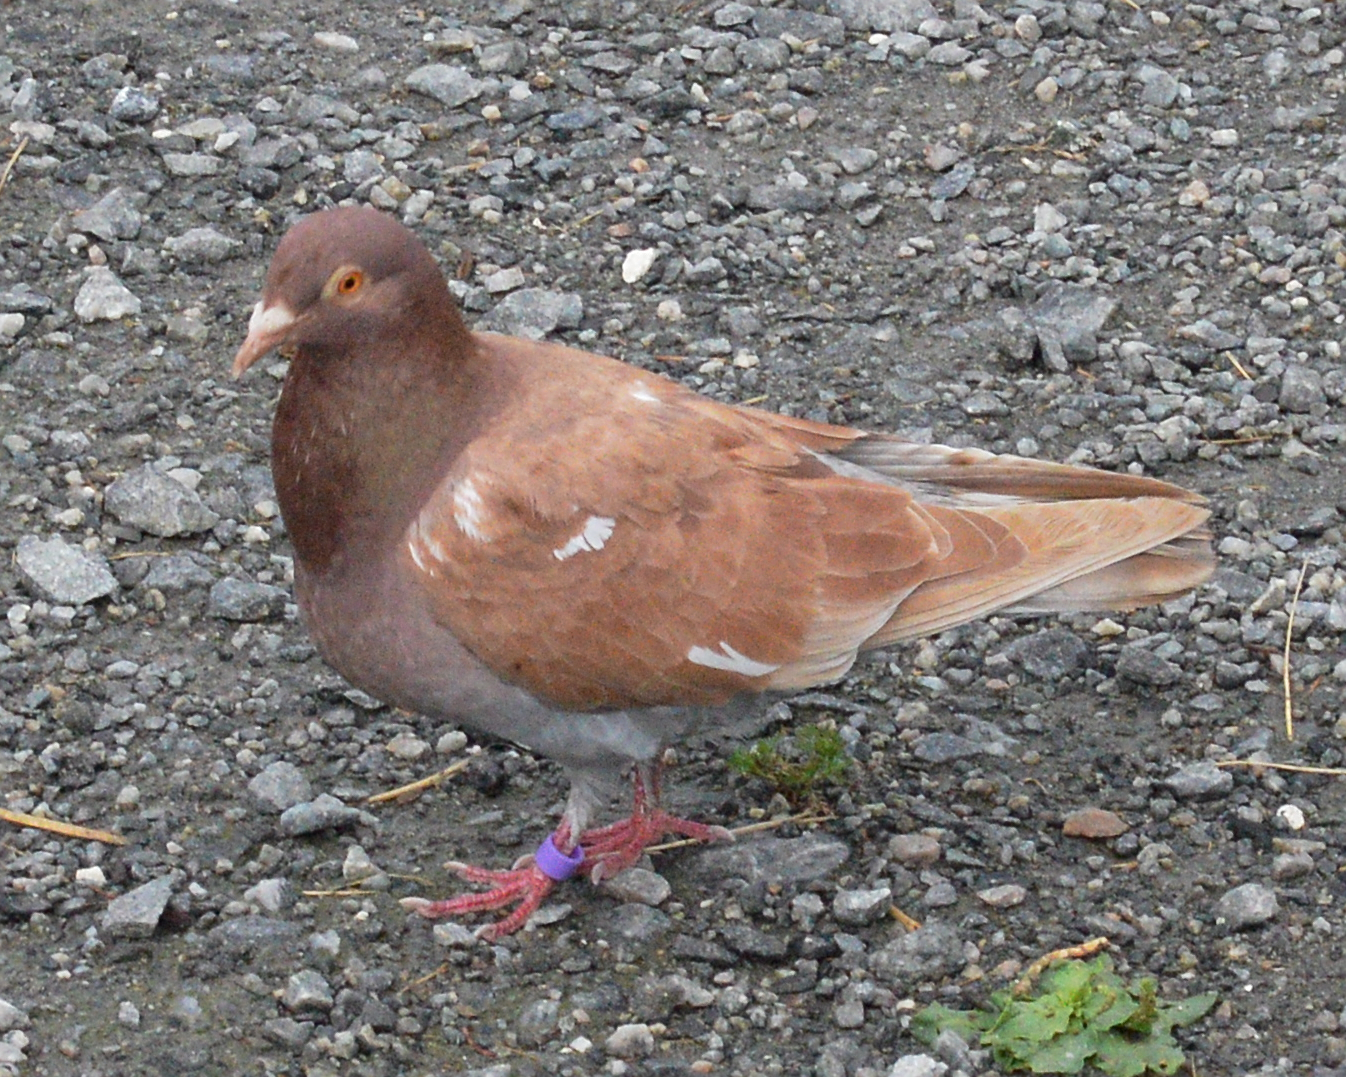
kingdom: Animalia
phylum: Chordata
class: Aves
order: Columbiformes
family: Columbidae
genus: Columba
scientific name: Columba livia
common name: Rock pigeon
